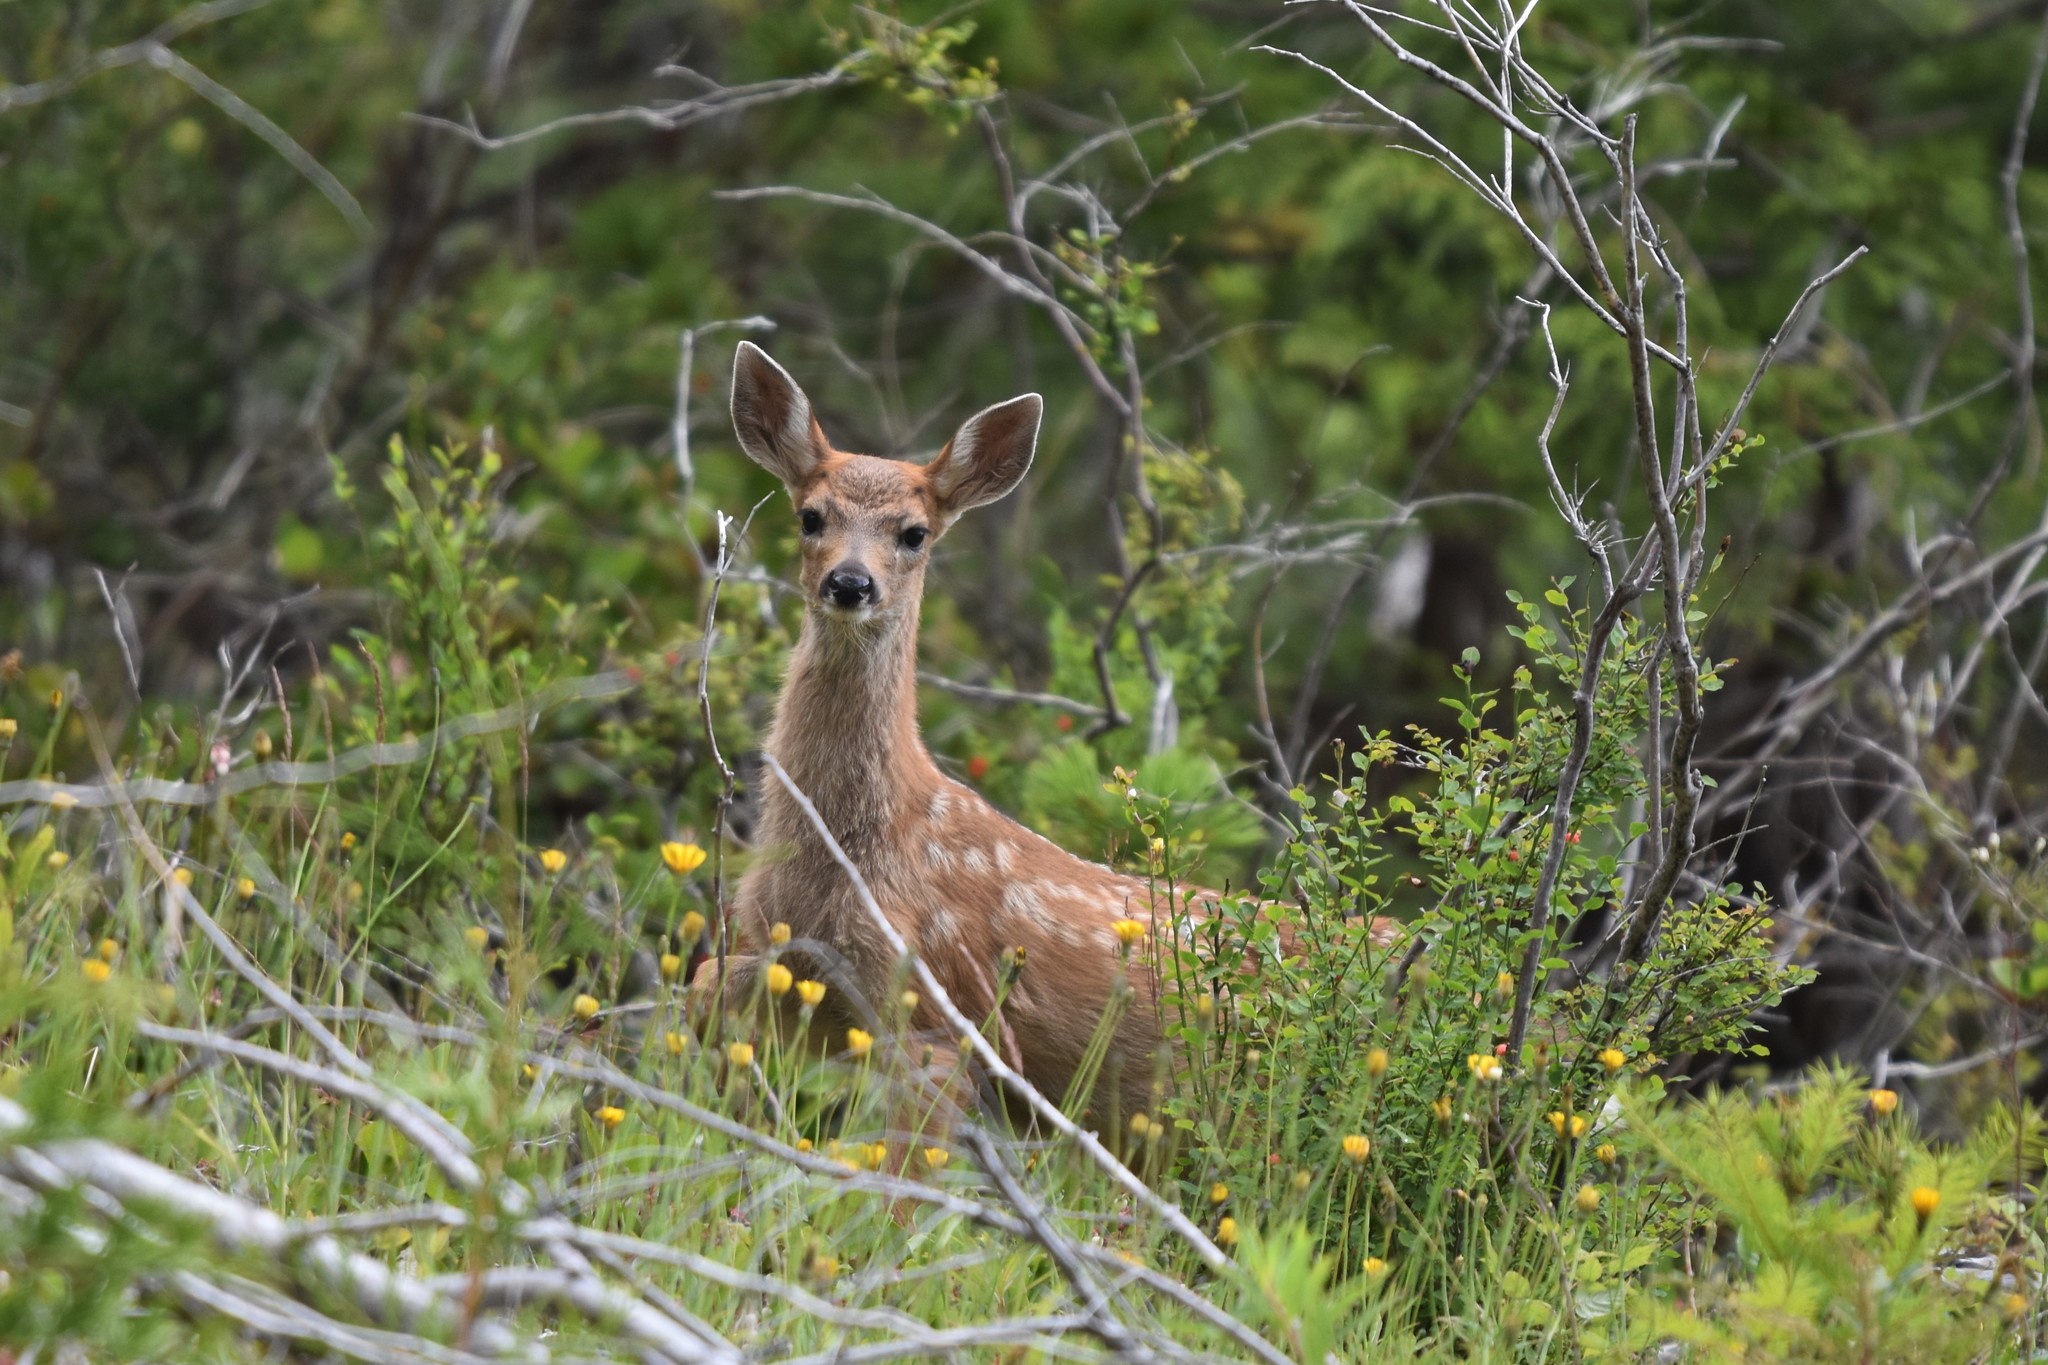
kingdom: Animalia
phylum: Chordata
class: Mammalia
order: Artiodactyla
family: Cervidae
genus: Odocoileus
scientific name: Odocoileus hemionus
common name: Mule deer
